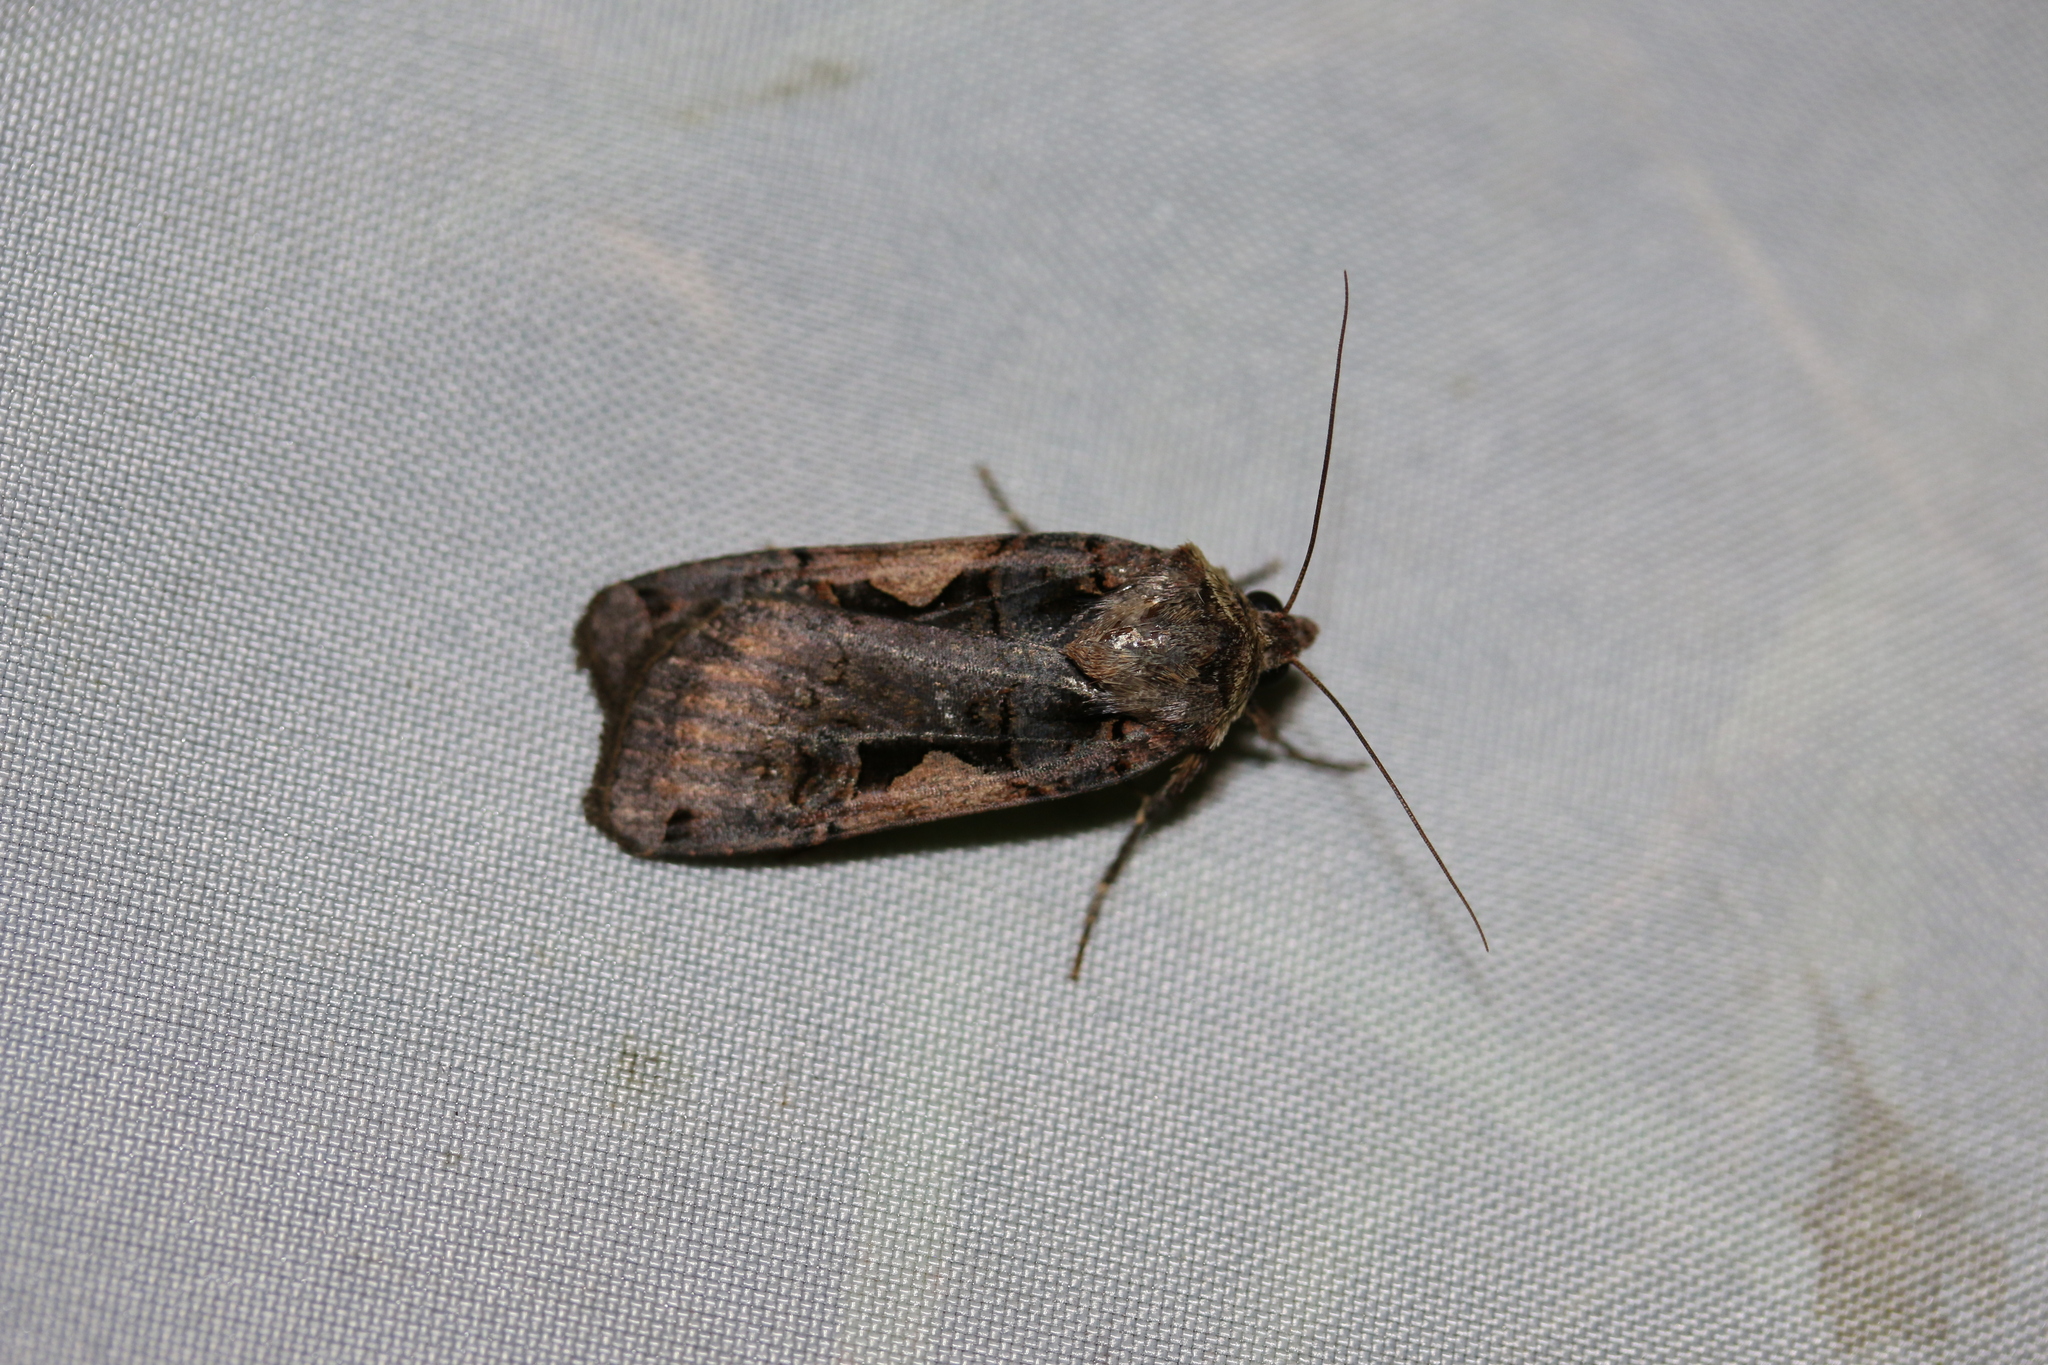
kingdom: Animalia
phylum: Arthropoda
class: Insecta
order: Lepidoptera
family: Noctuidae
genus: Xestia
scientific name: Xestia c-nigrum
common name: Setaceous hebrew character
